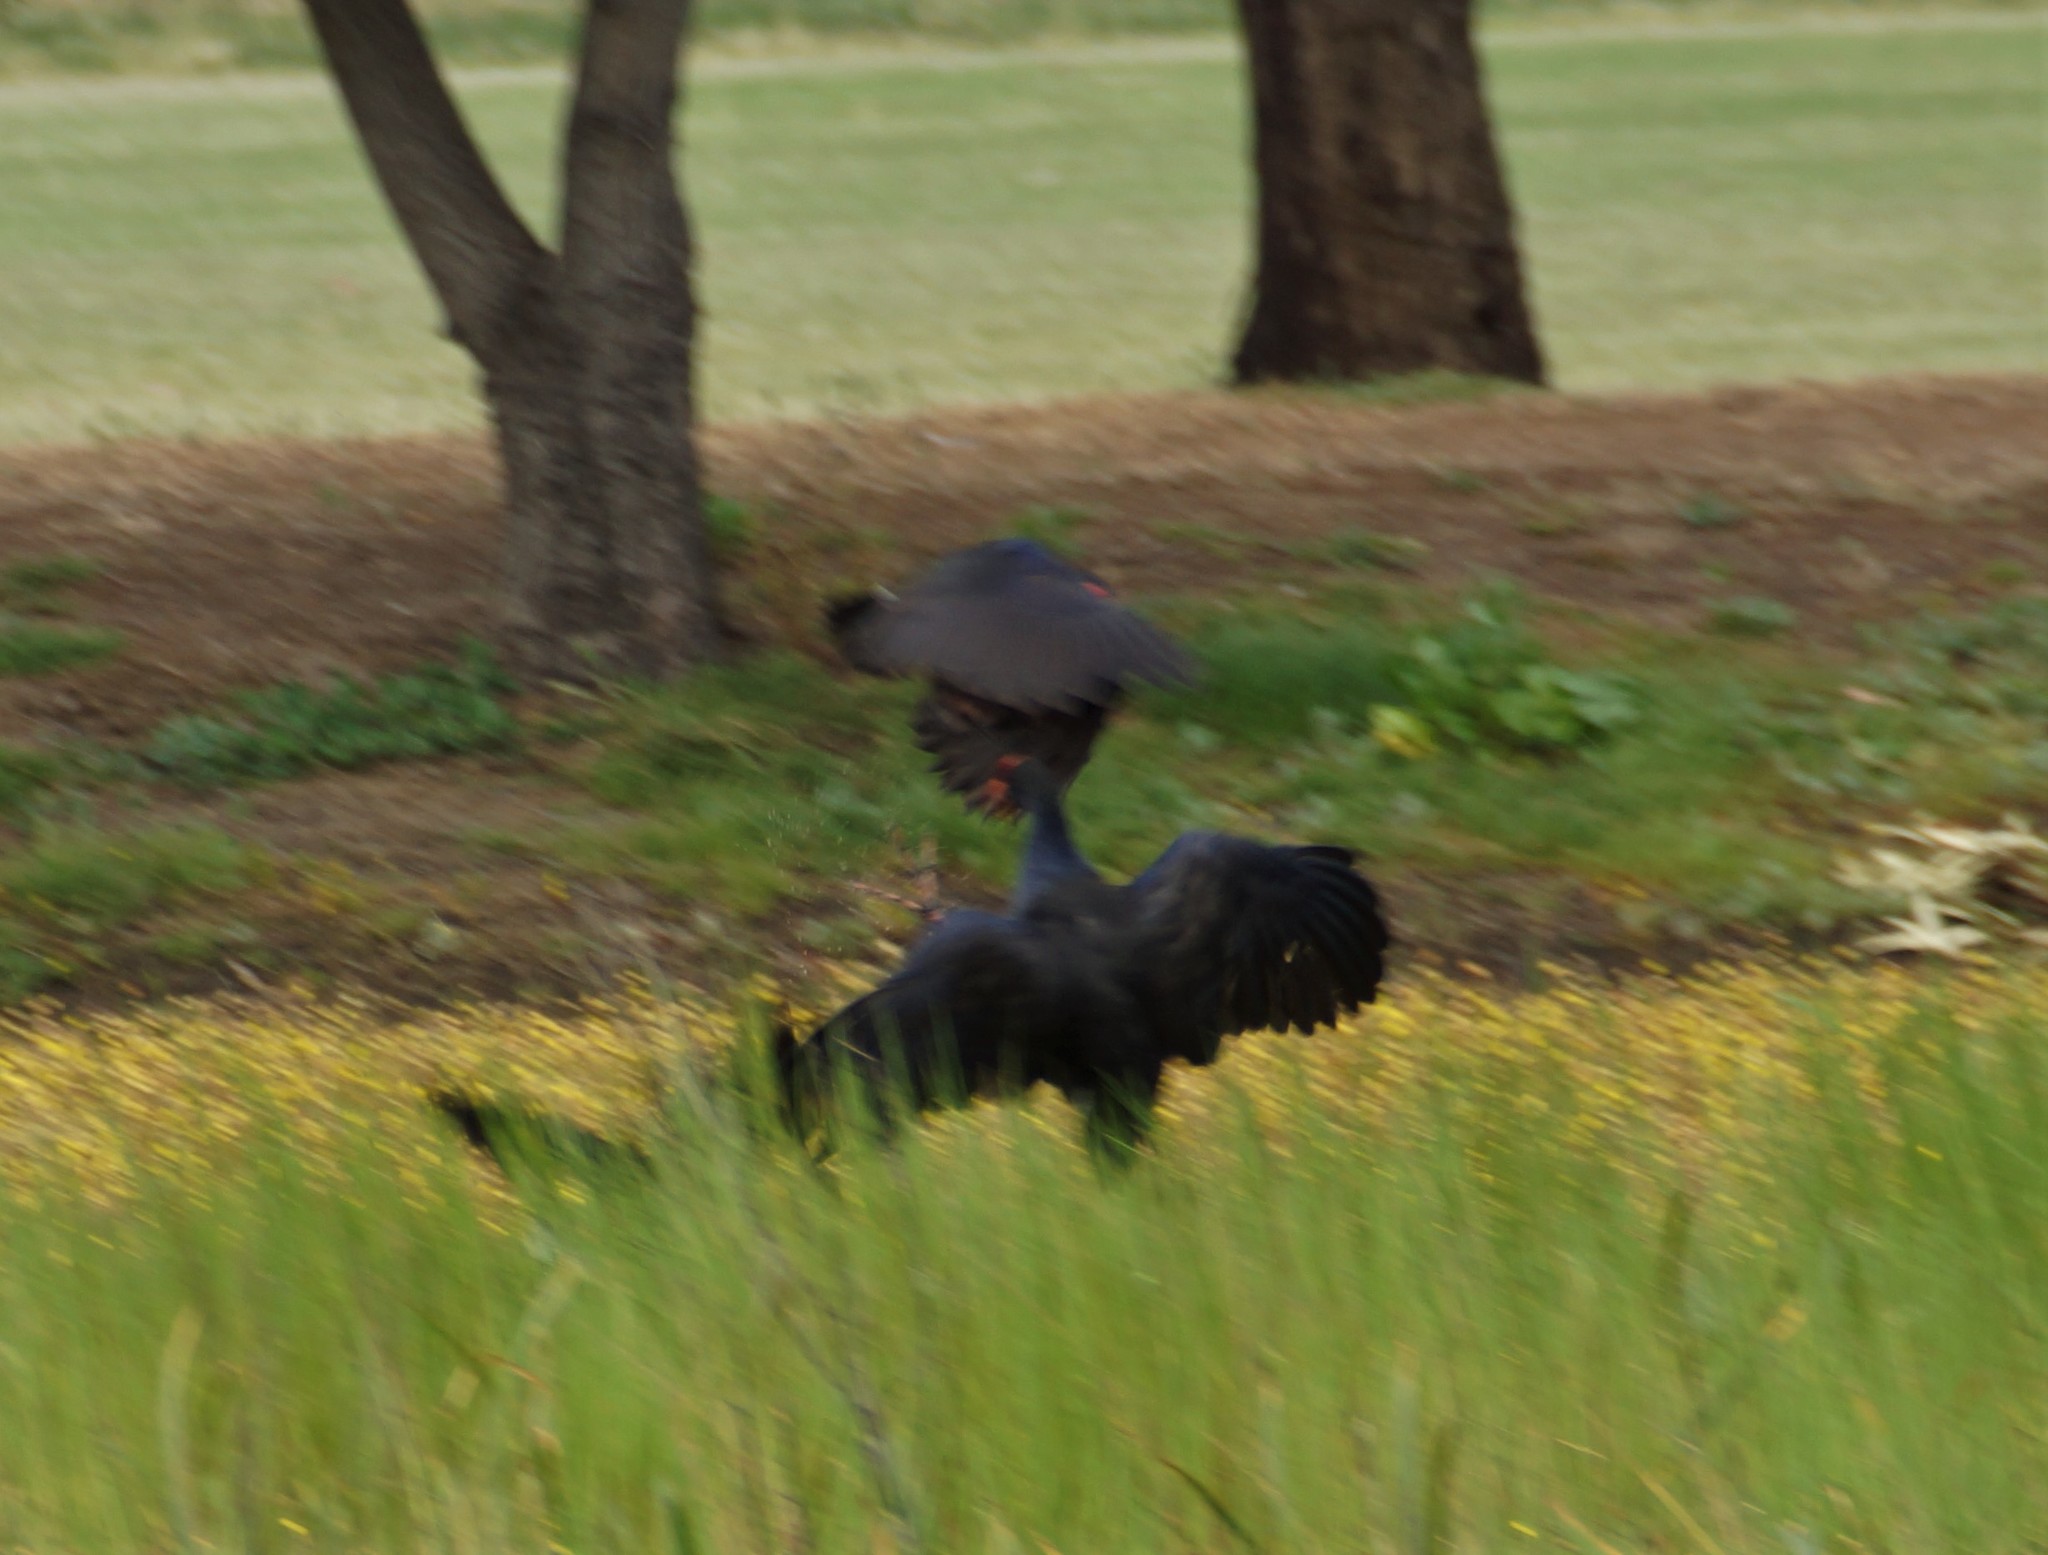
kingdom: Animalia
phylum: Chordata
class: Aves
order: Gruiformes
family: Rallidae
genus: Porphyrio
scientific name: Porphyrio melanotus
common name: Australasian swamphen
